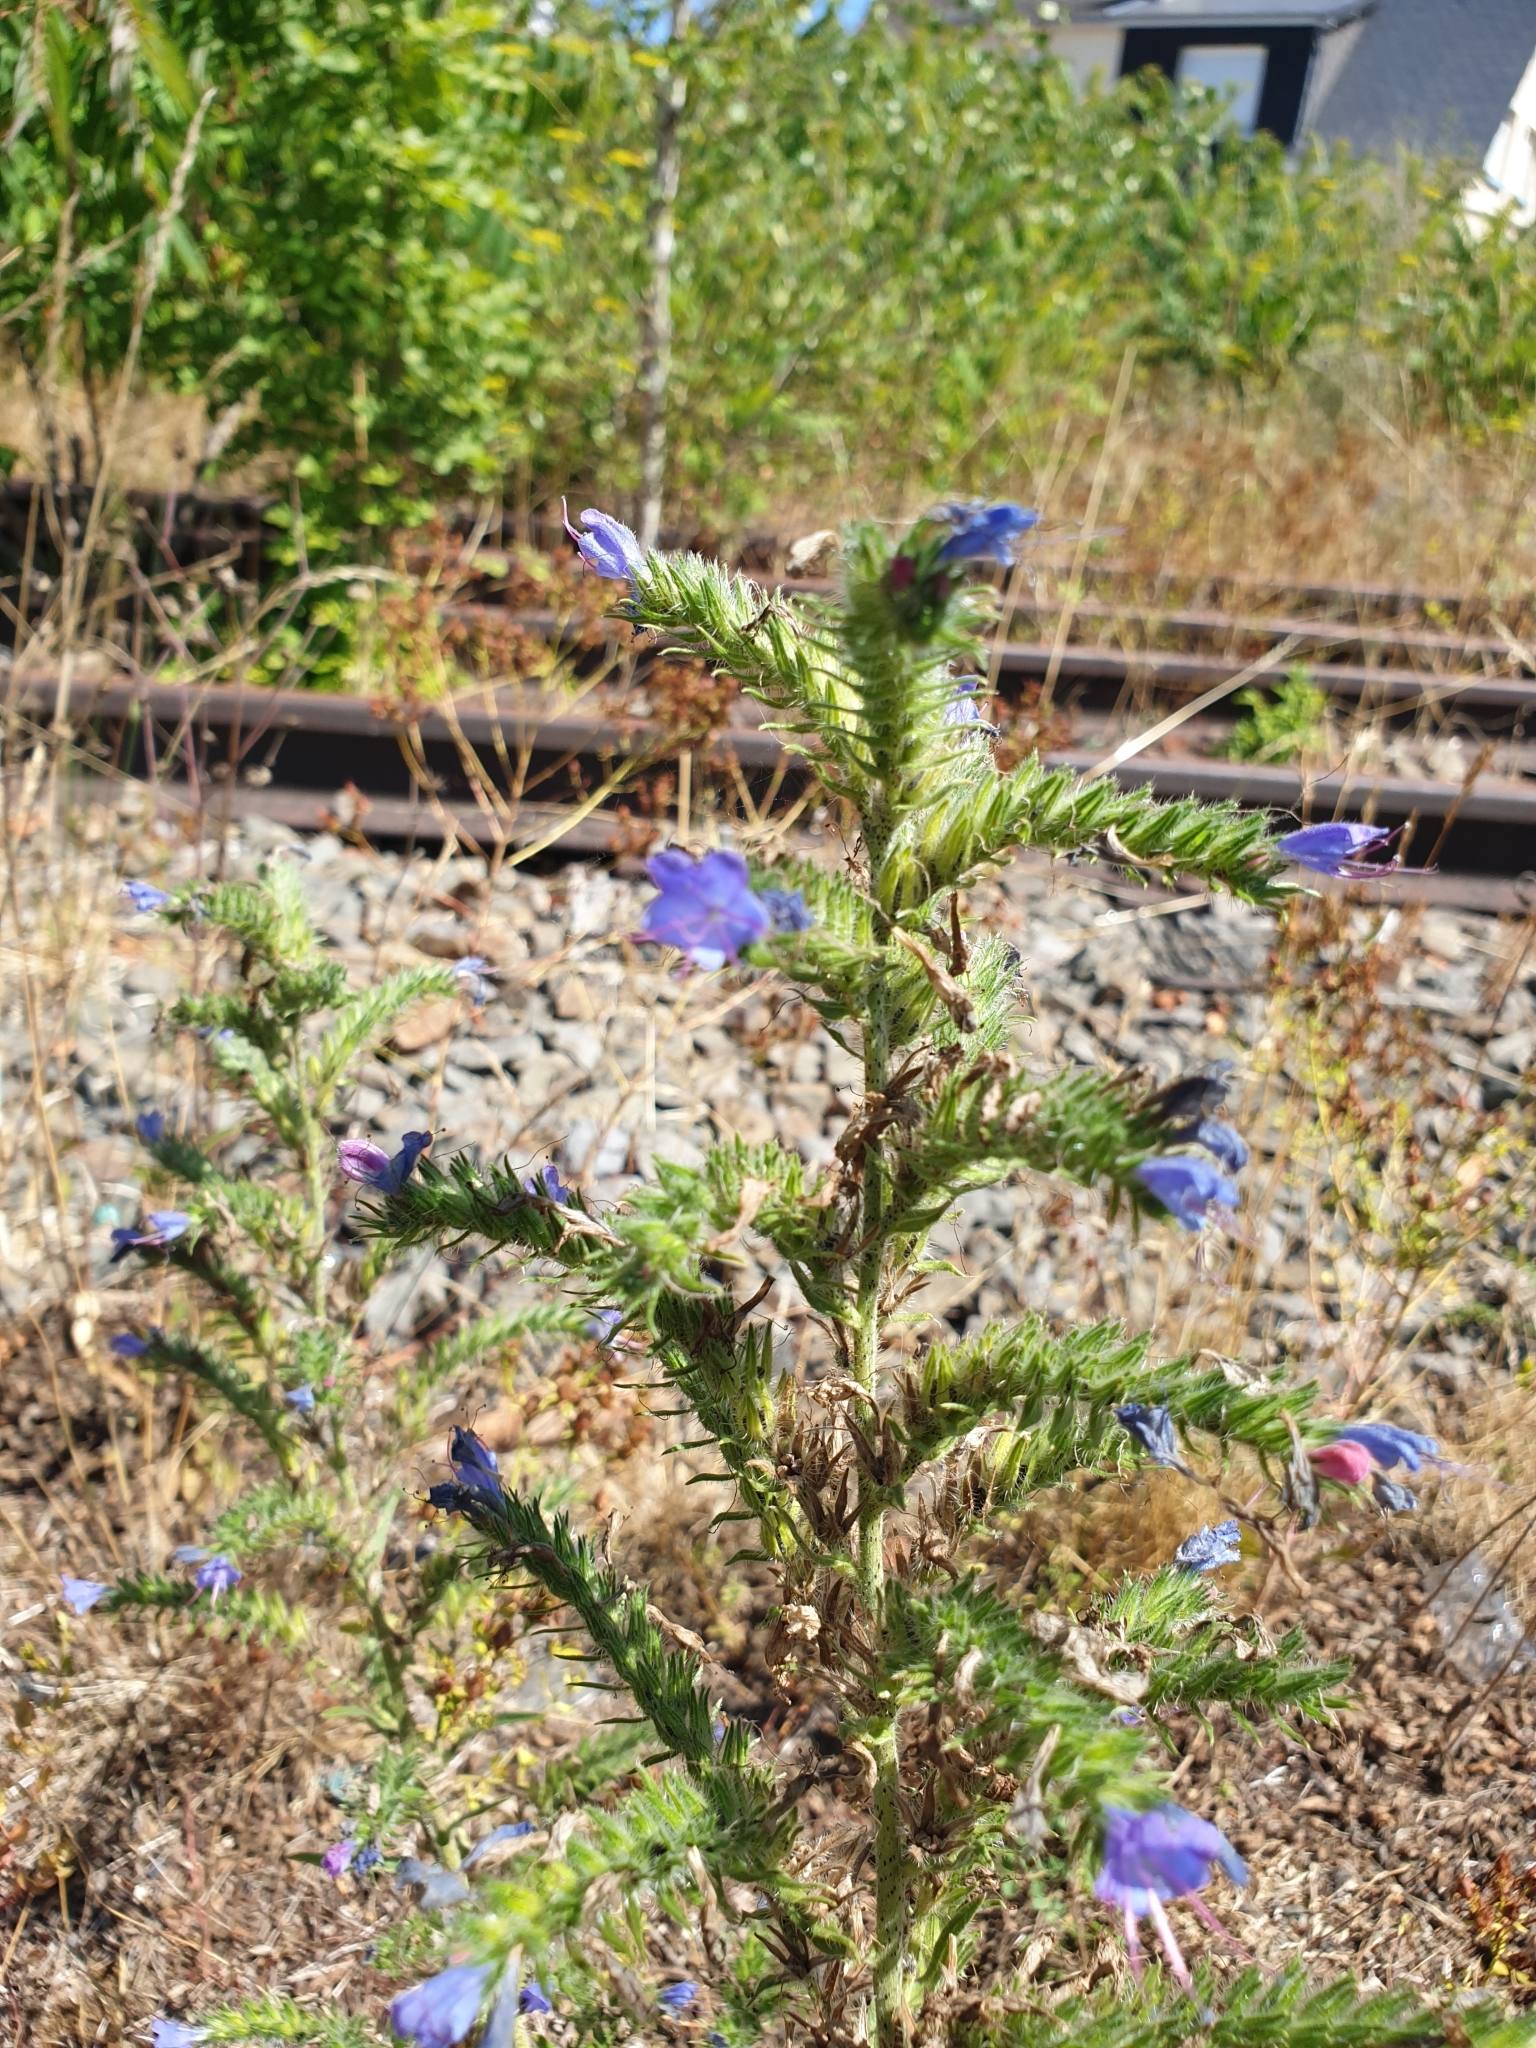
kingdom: Plantae
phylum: Tracheophyta
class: Magnoliopsida
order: Boraginales
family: Boraginaceae
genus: Echium
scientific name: Echium vulgare
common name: Common viper's bugloss
